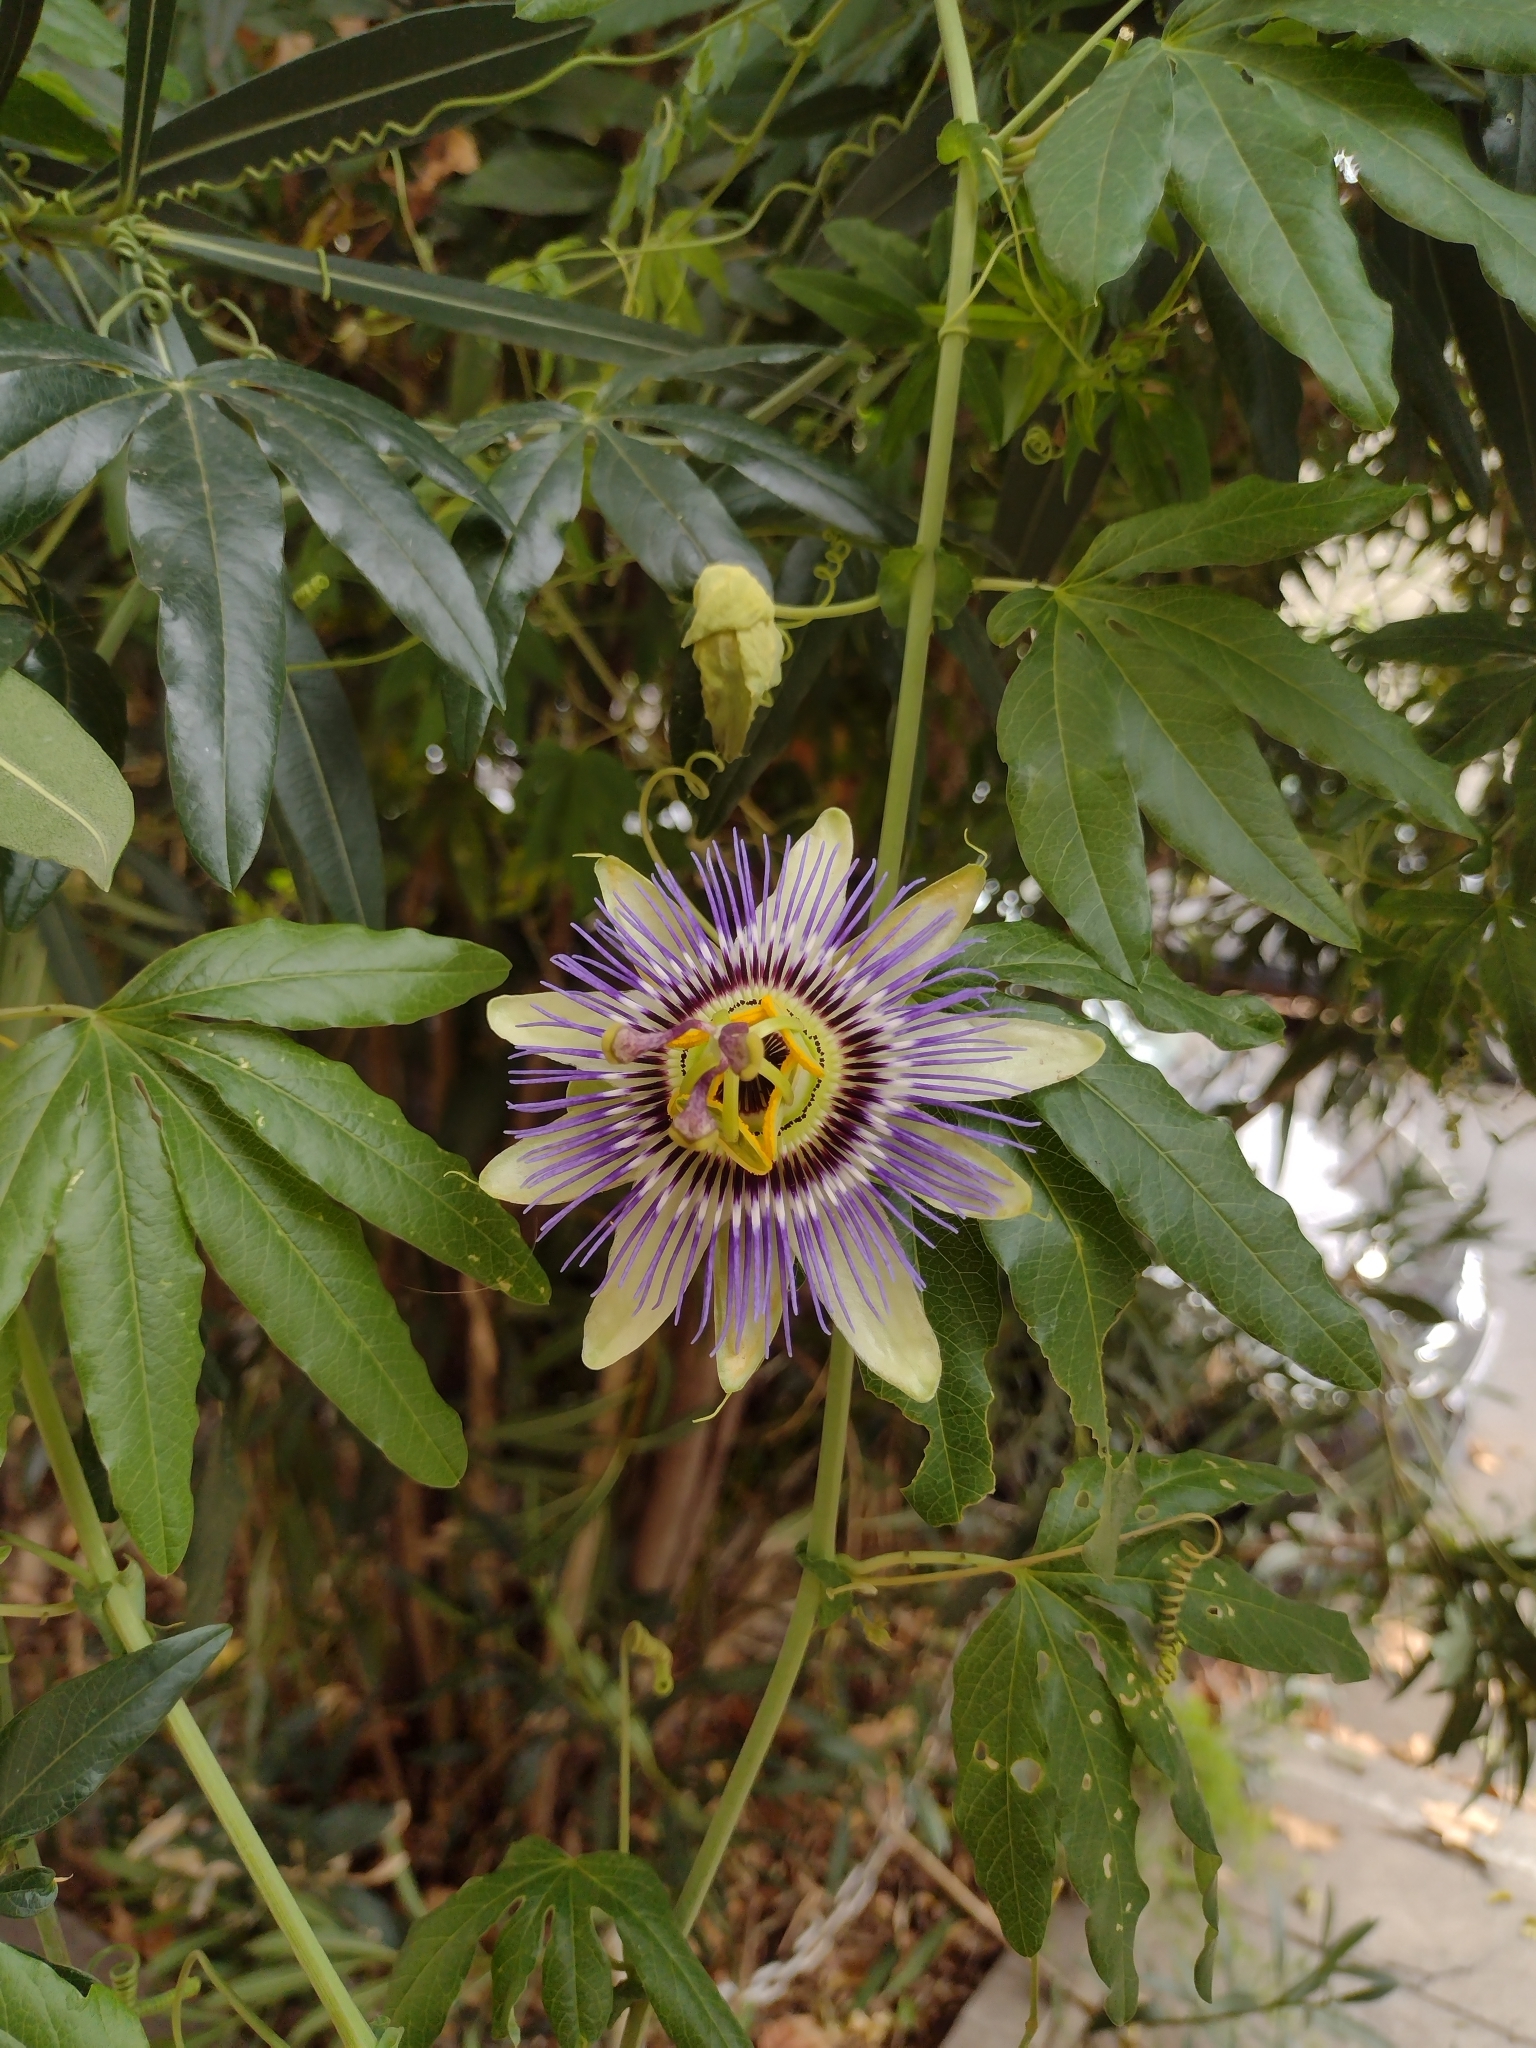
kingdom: Plantae
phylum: Tracheophyta
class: Magnoliopsida
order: Malpighiales
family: Passifloraceae
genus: Passiflora
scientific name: Passiflora caerulea
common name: Blue passionflower
